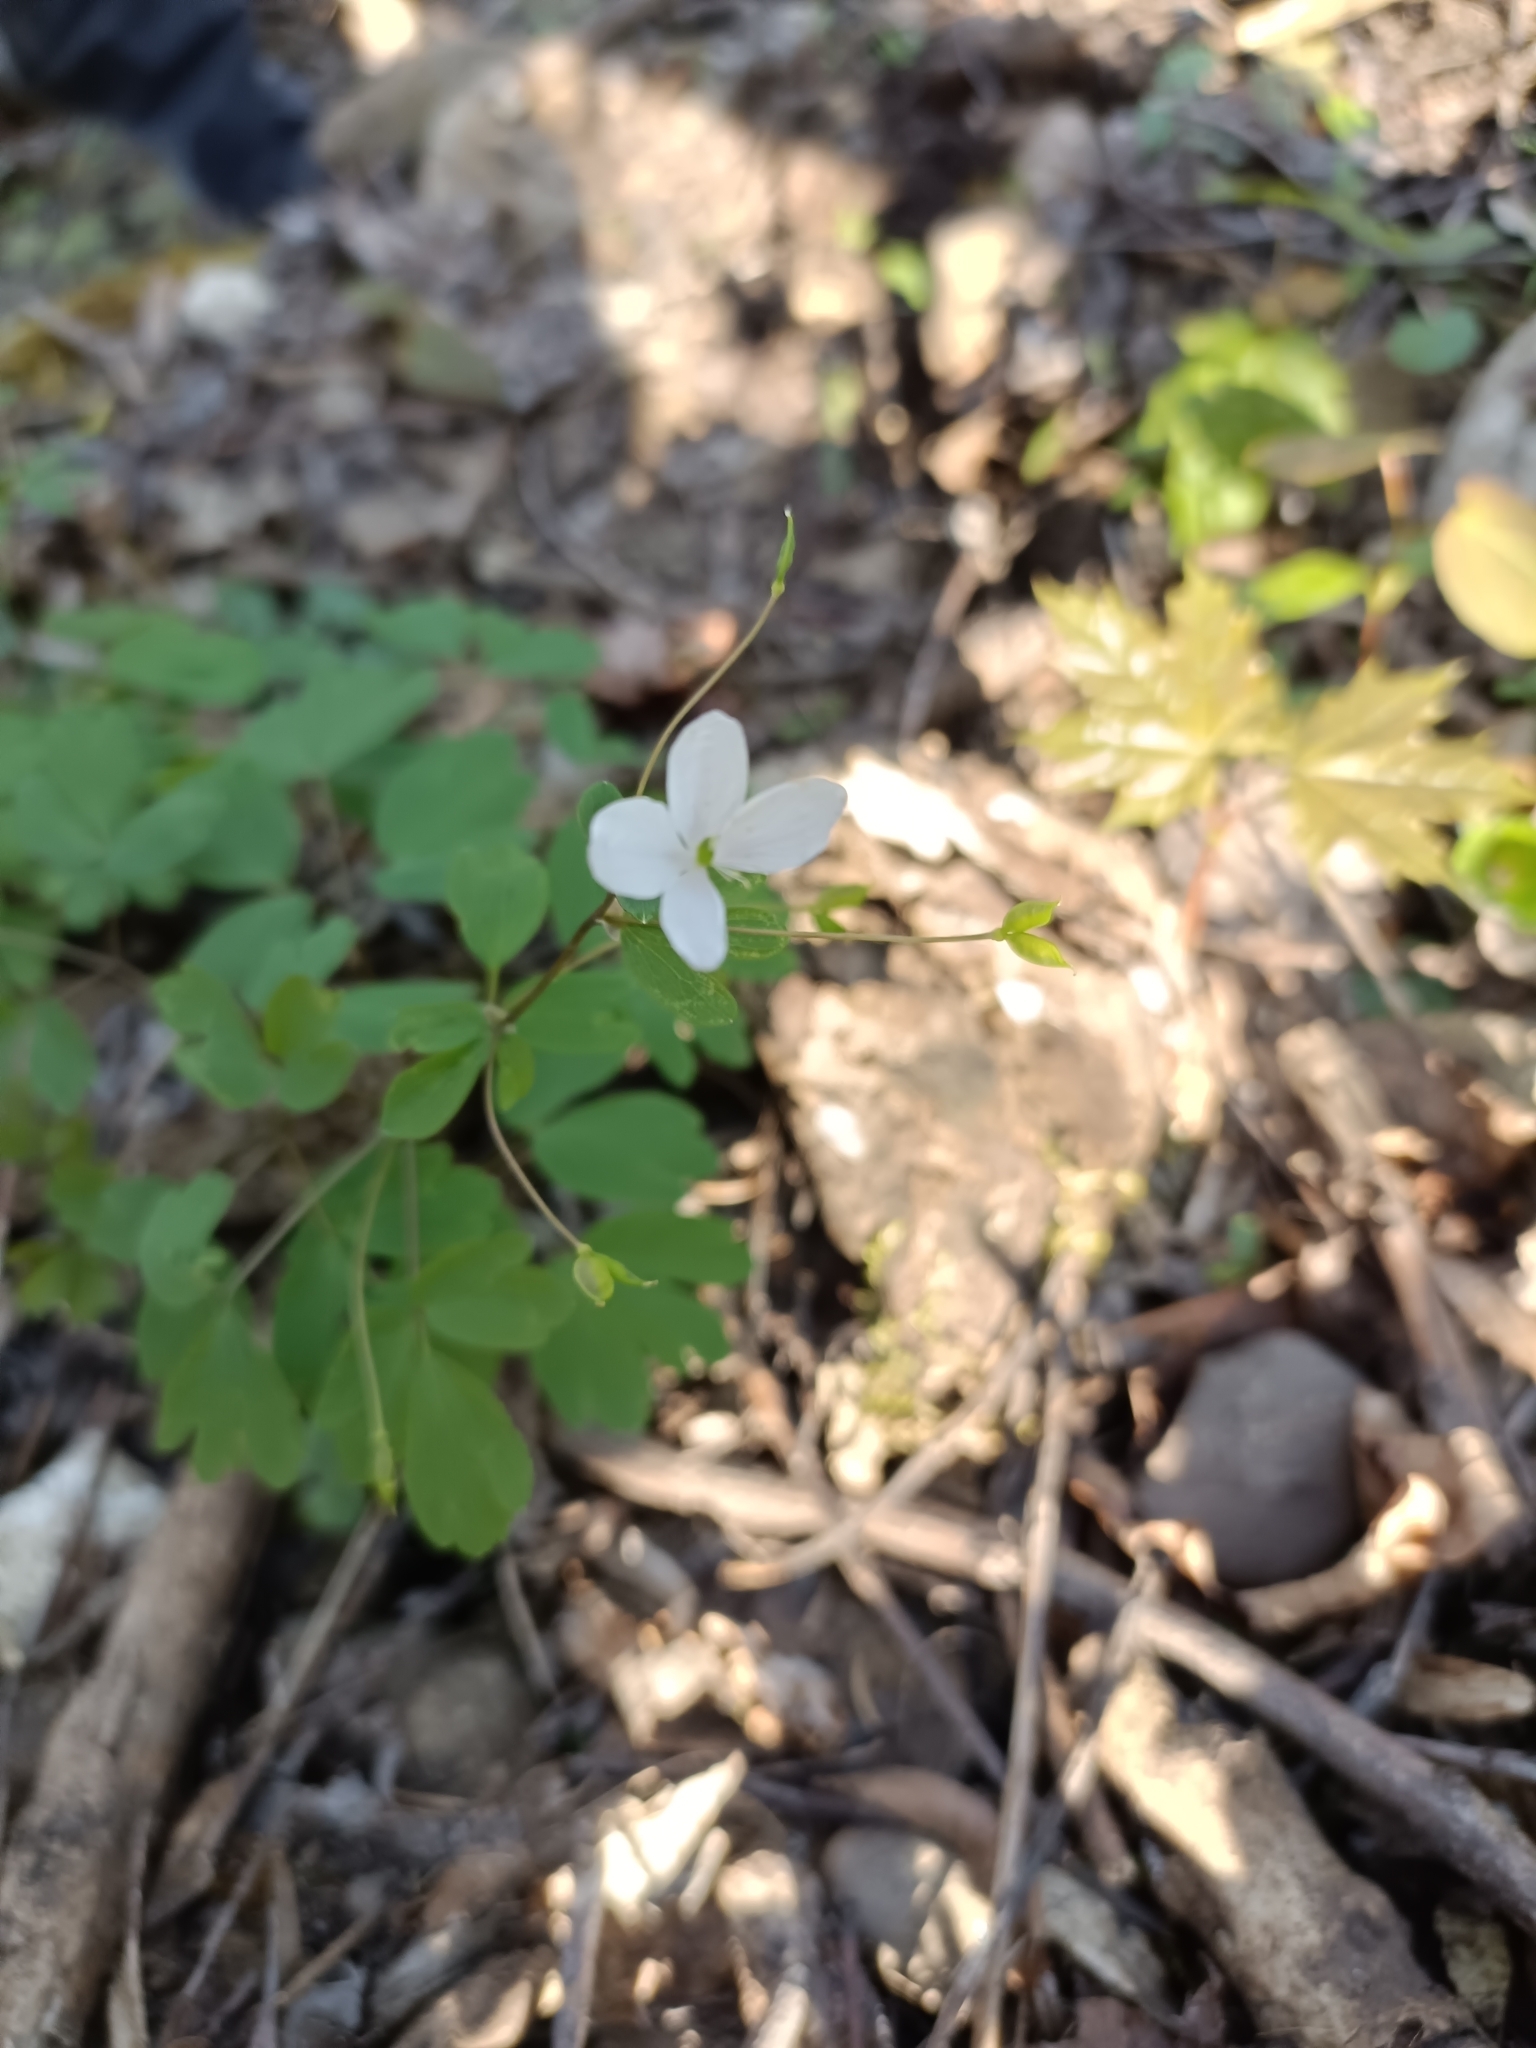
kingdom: Plantae
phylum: Tracheophyta
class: Magnoliopsida
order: Ranunculales
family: Ranunculaceae
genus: Isopyrum
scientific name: Isopyrum thalictroides
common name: Isopyrum
